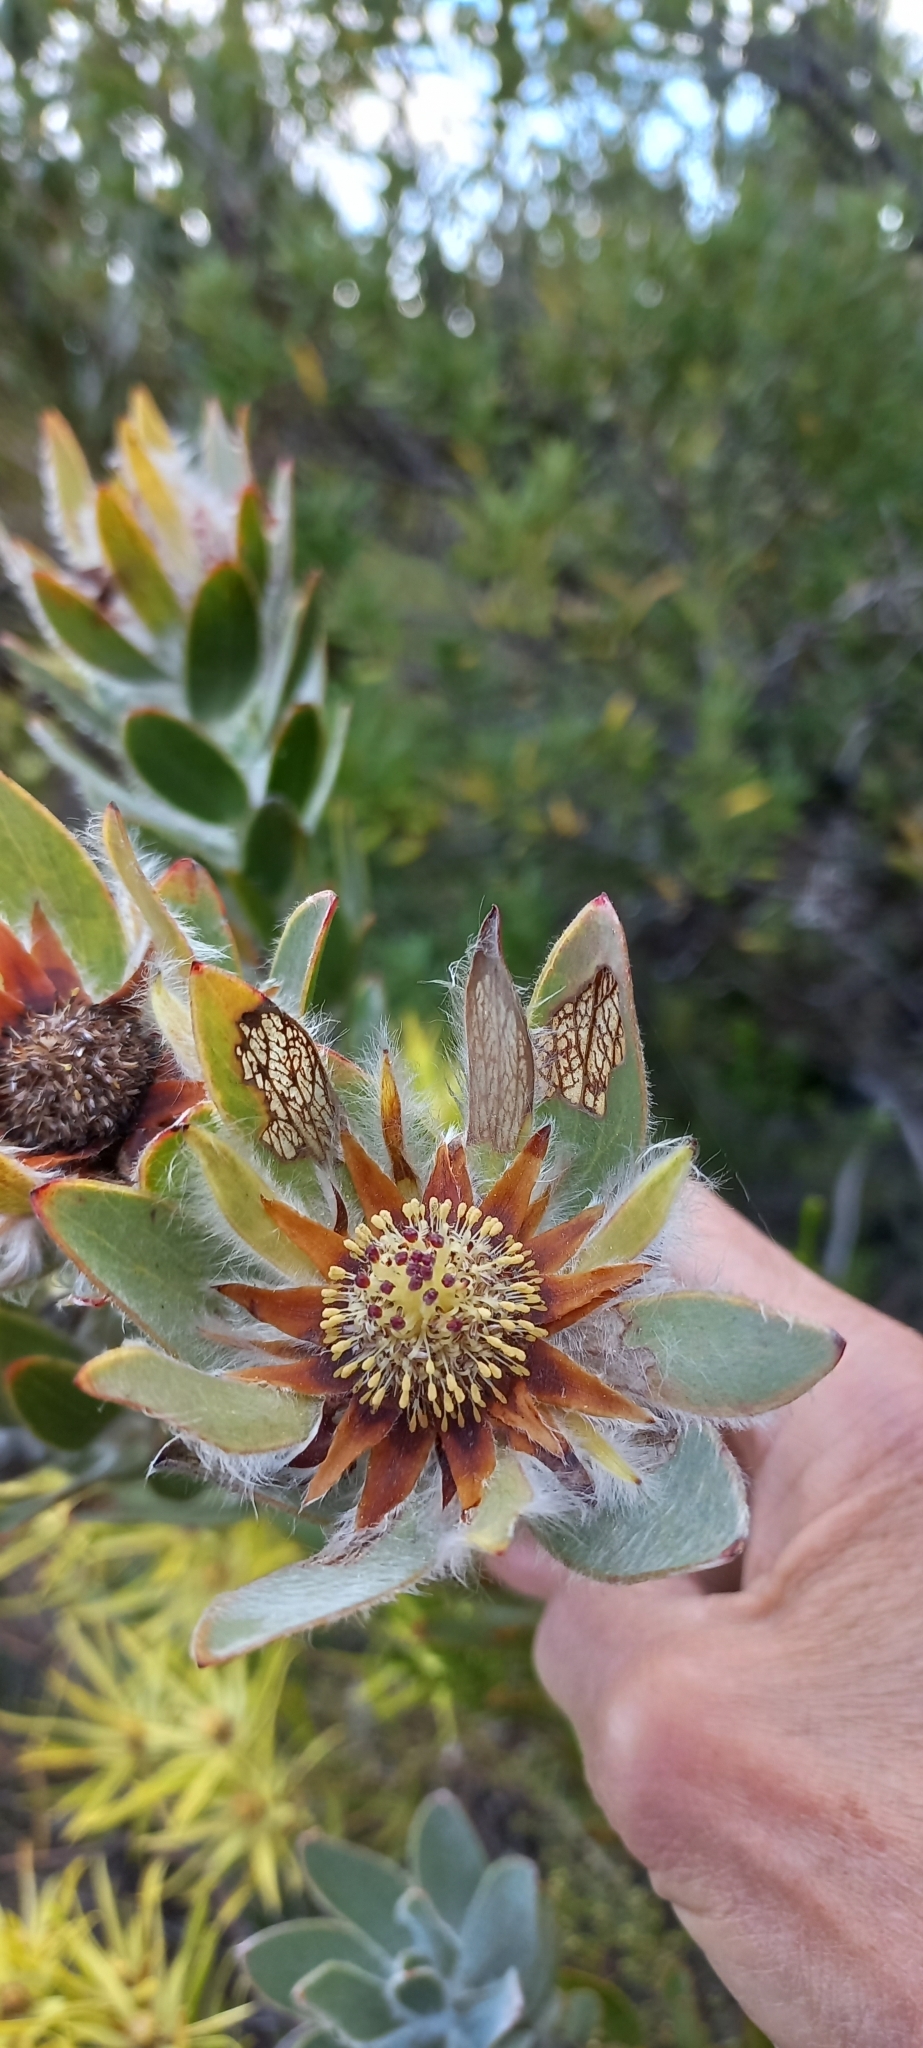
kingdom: Plantae
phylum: Tracheophyta
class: Magnoliopsida
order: Proteales
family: Proteaceae
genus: Leucadendron
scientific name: Leucadendron nervosum
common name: Silky-ruff conebush
